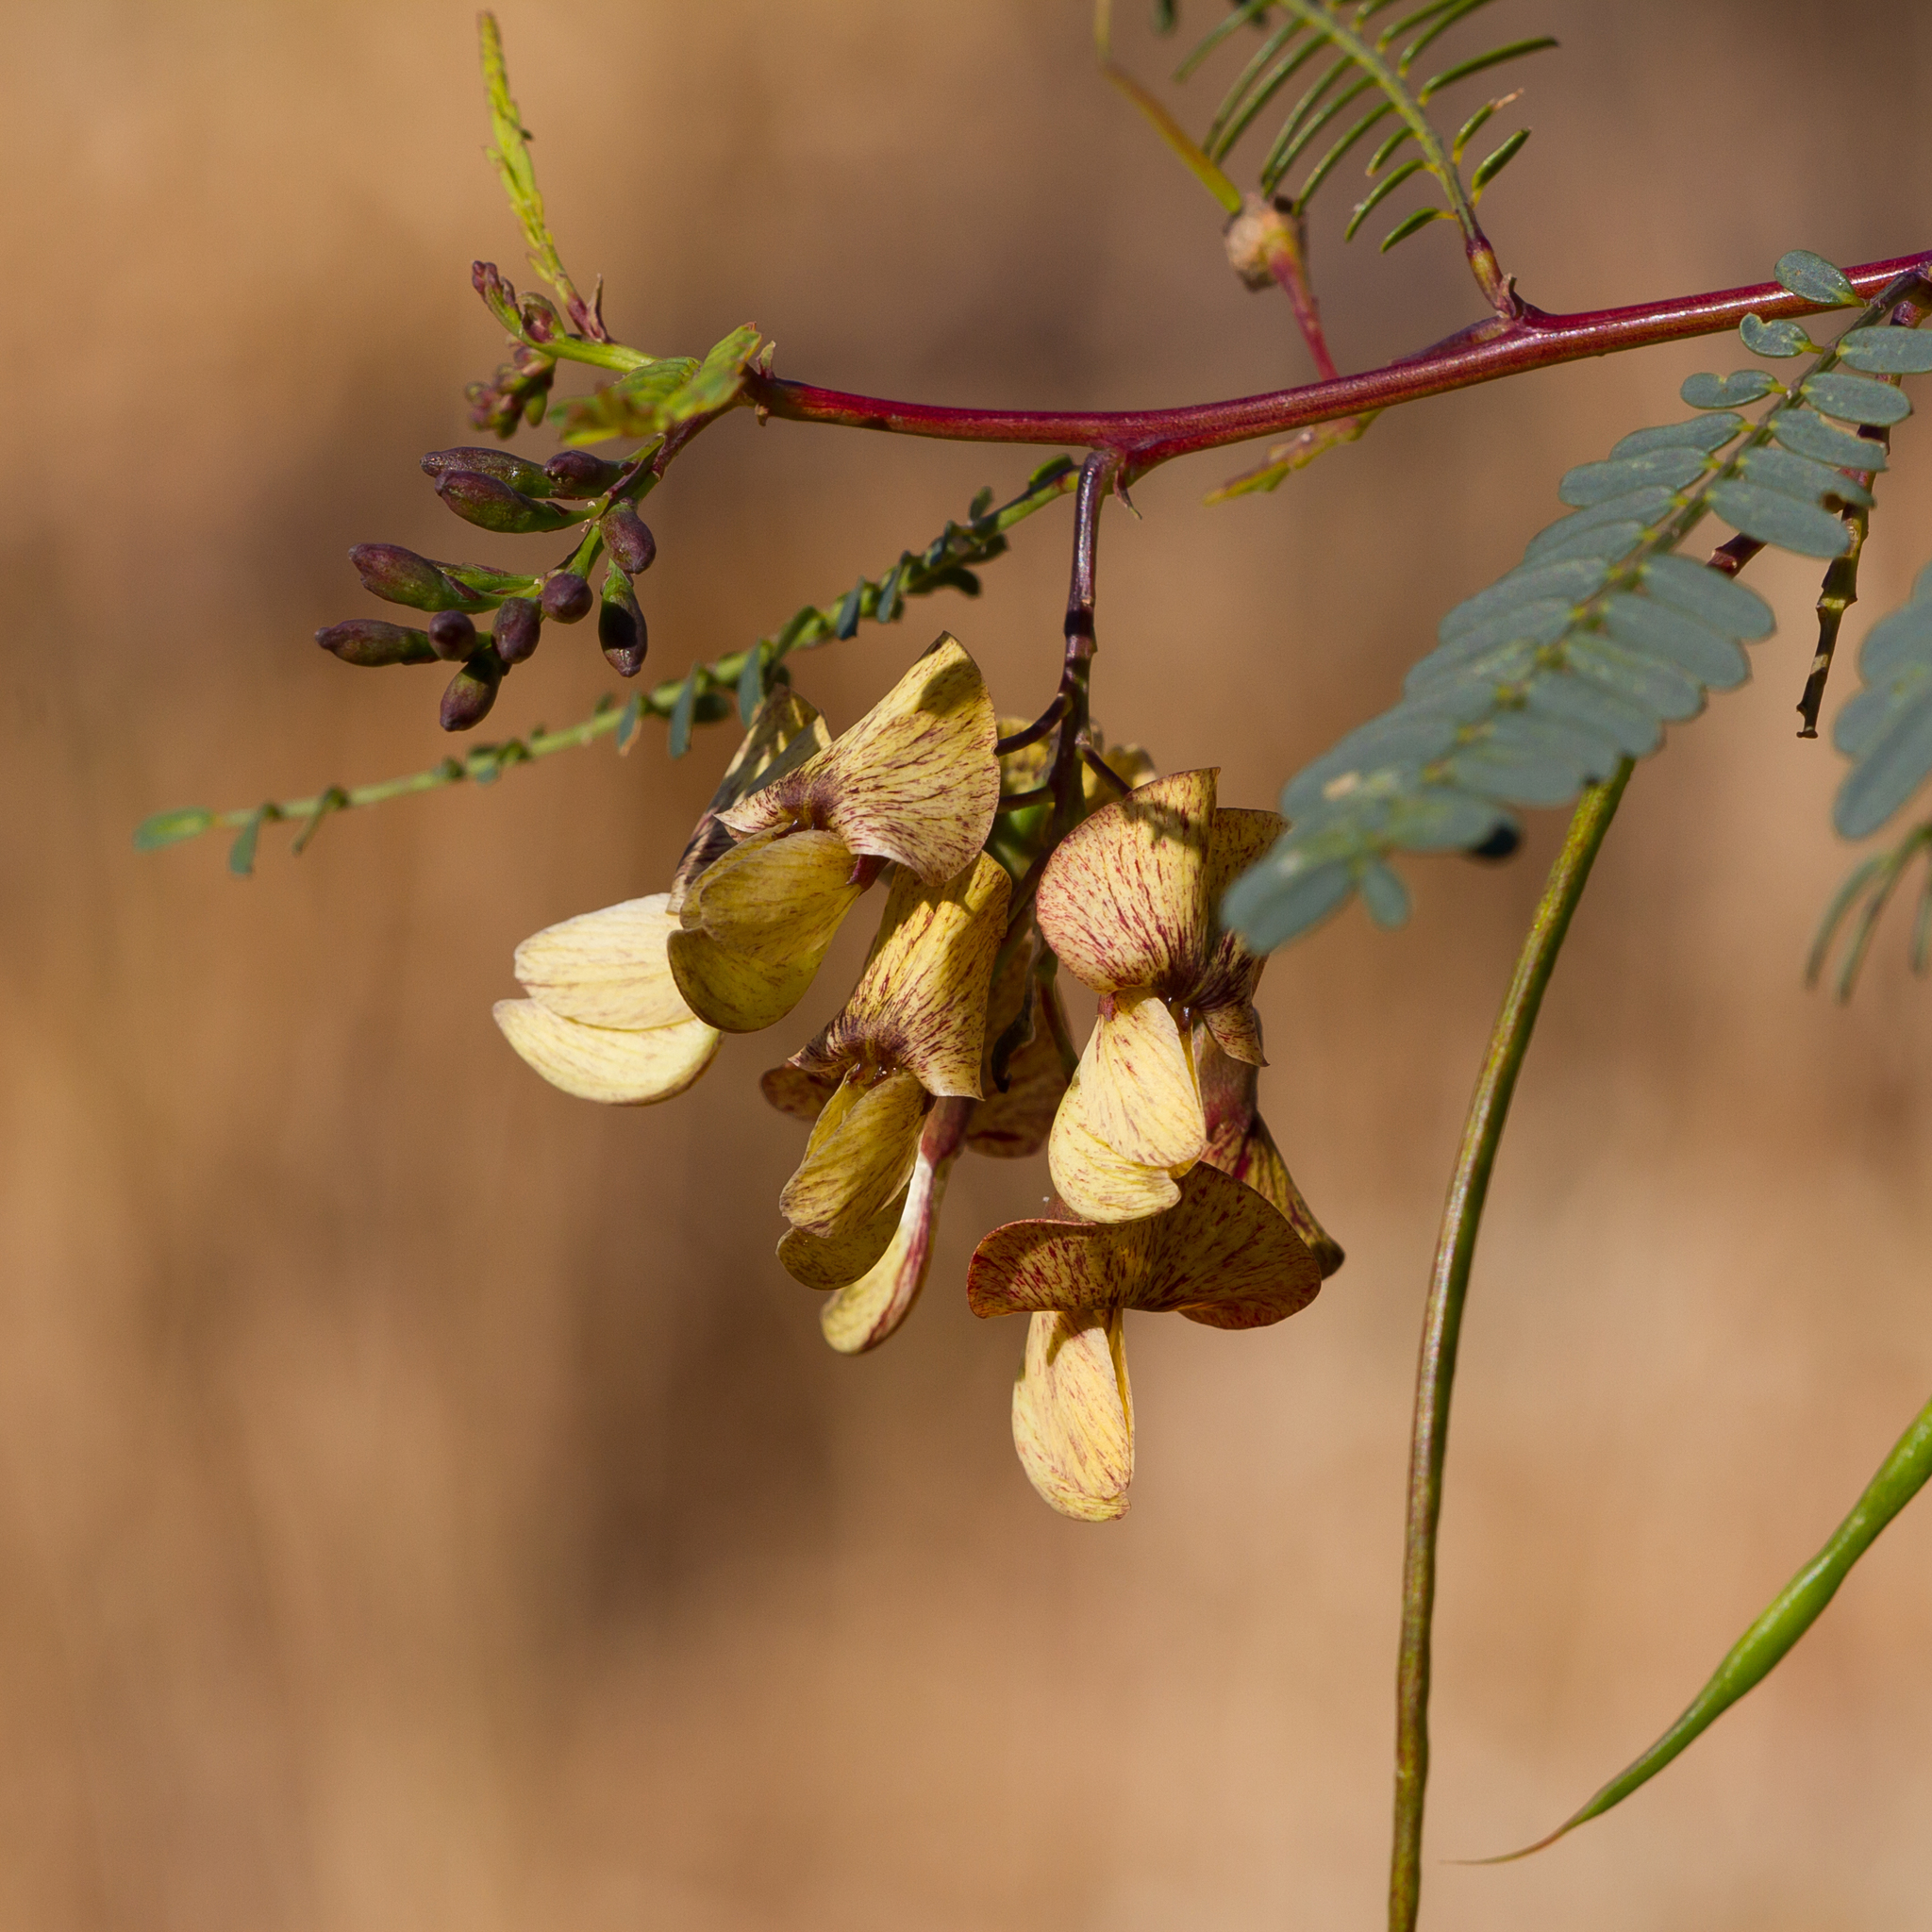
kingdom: Plantae
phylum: Tracheophyta
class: Magnoliopsida
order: Fabales
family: Fabaceae
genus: Sesbania
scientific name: Sesbania benthamiana
